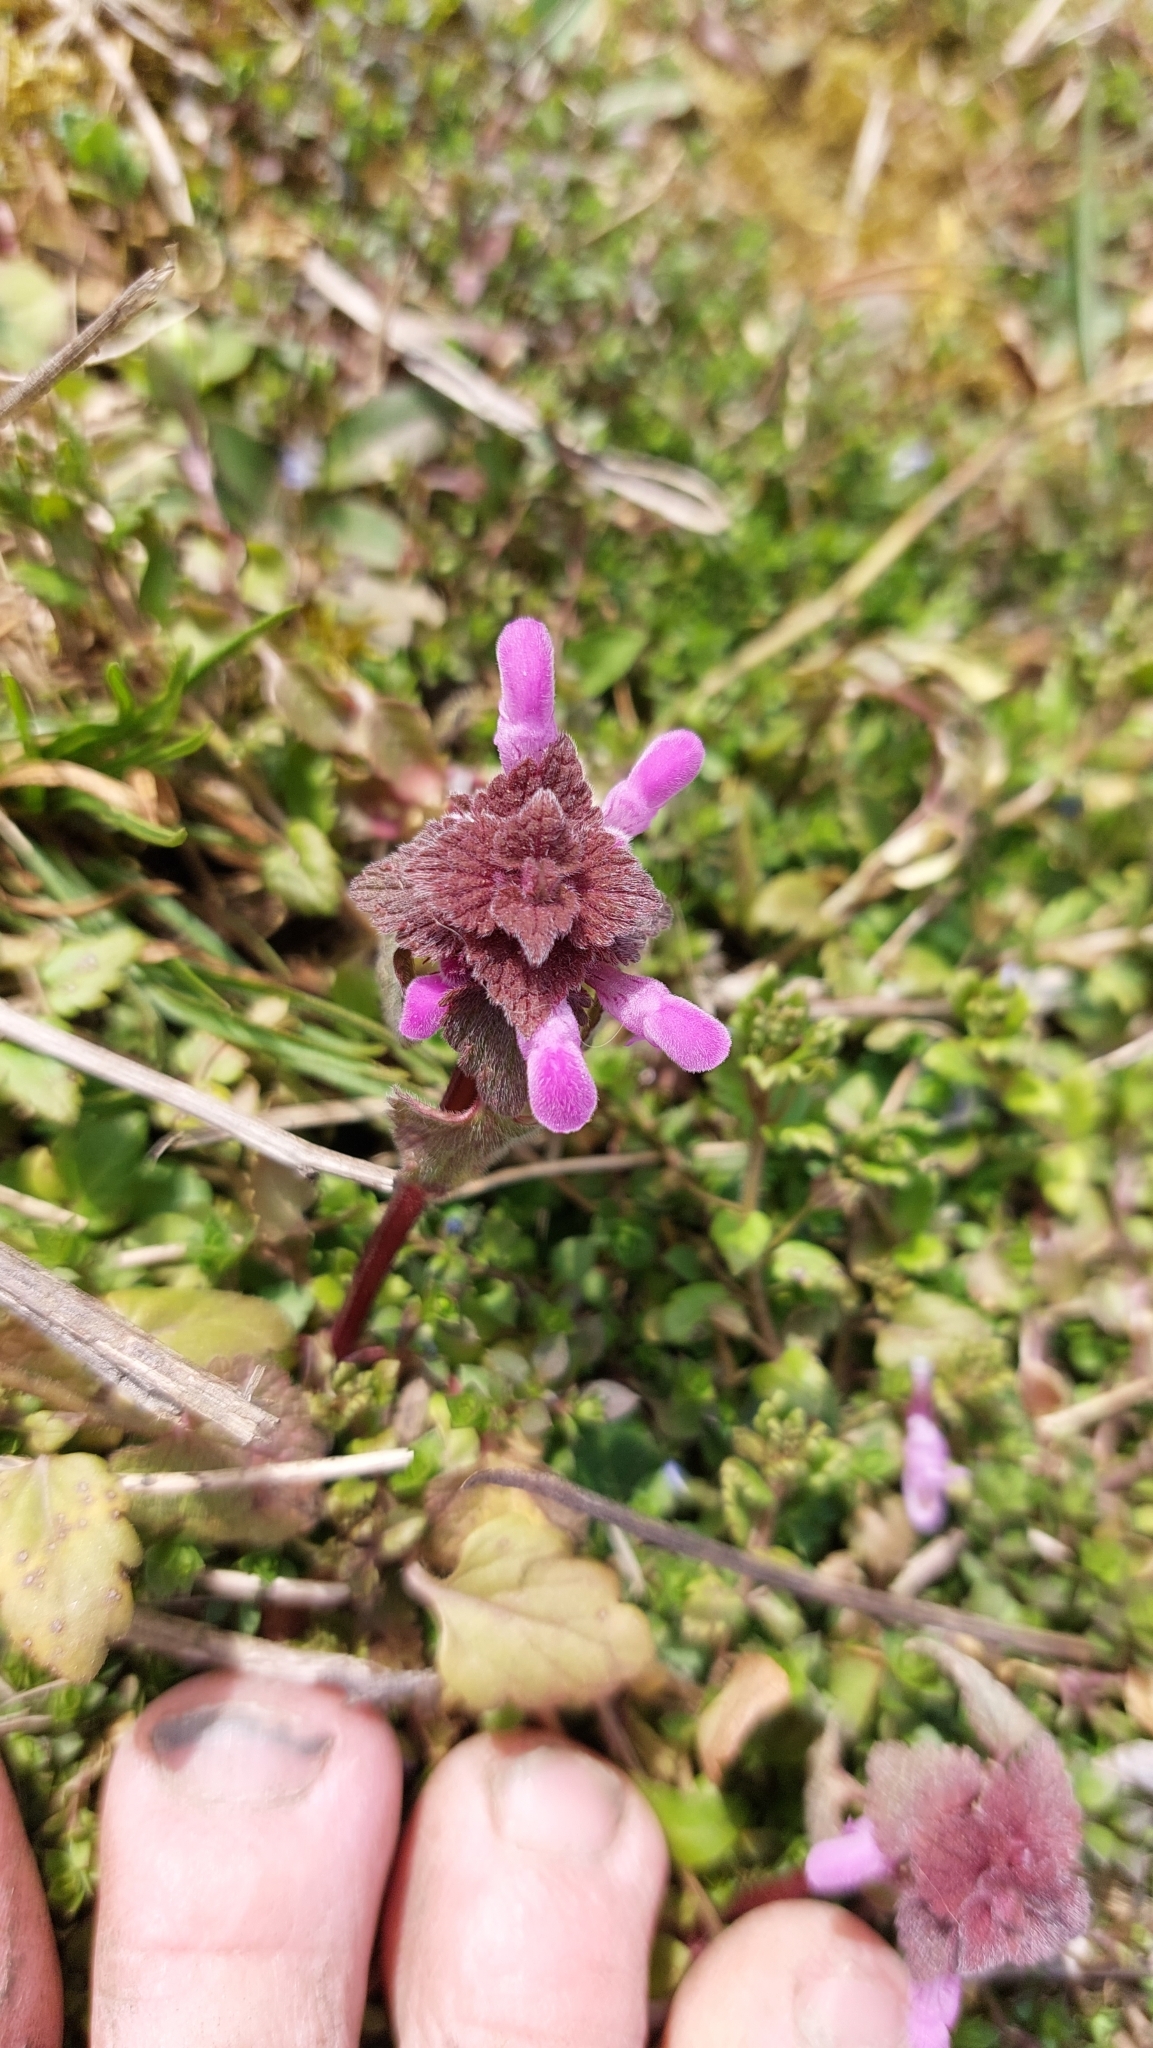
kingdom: Plantae
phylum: Tracheophyta
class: Magnoliopsida
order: Lamiales
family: Lamiaceae
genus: Lamium
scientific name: Lamium purpureum
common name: Red dead-nettle
